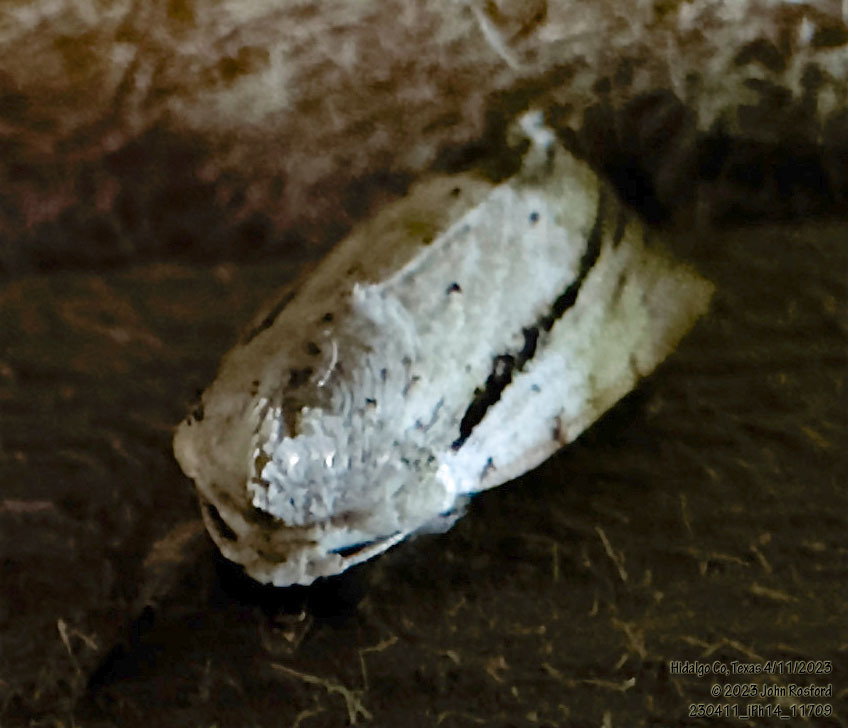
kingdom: Animalia
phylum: Arthropoda
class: Insecta
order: Lepidoptera
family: Noctuidae
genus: Catabenoides
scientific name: Catabenoides terminellus
